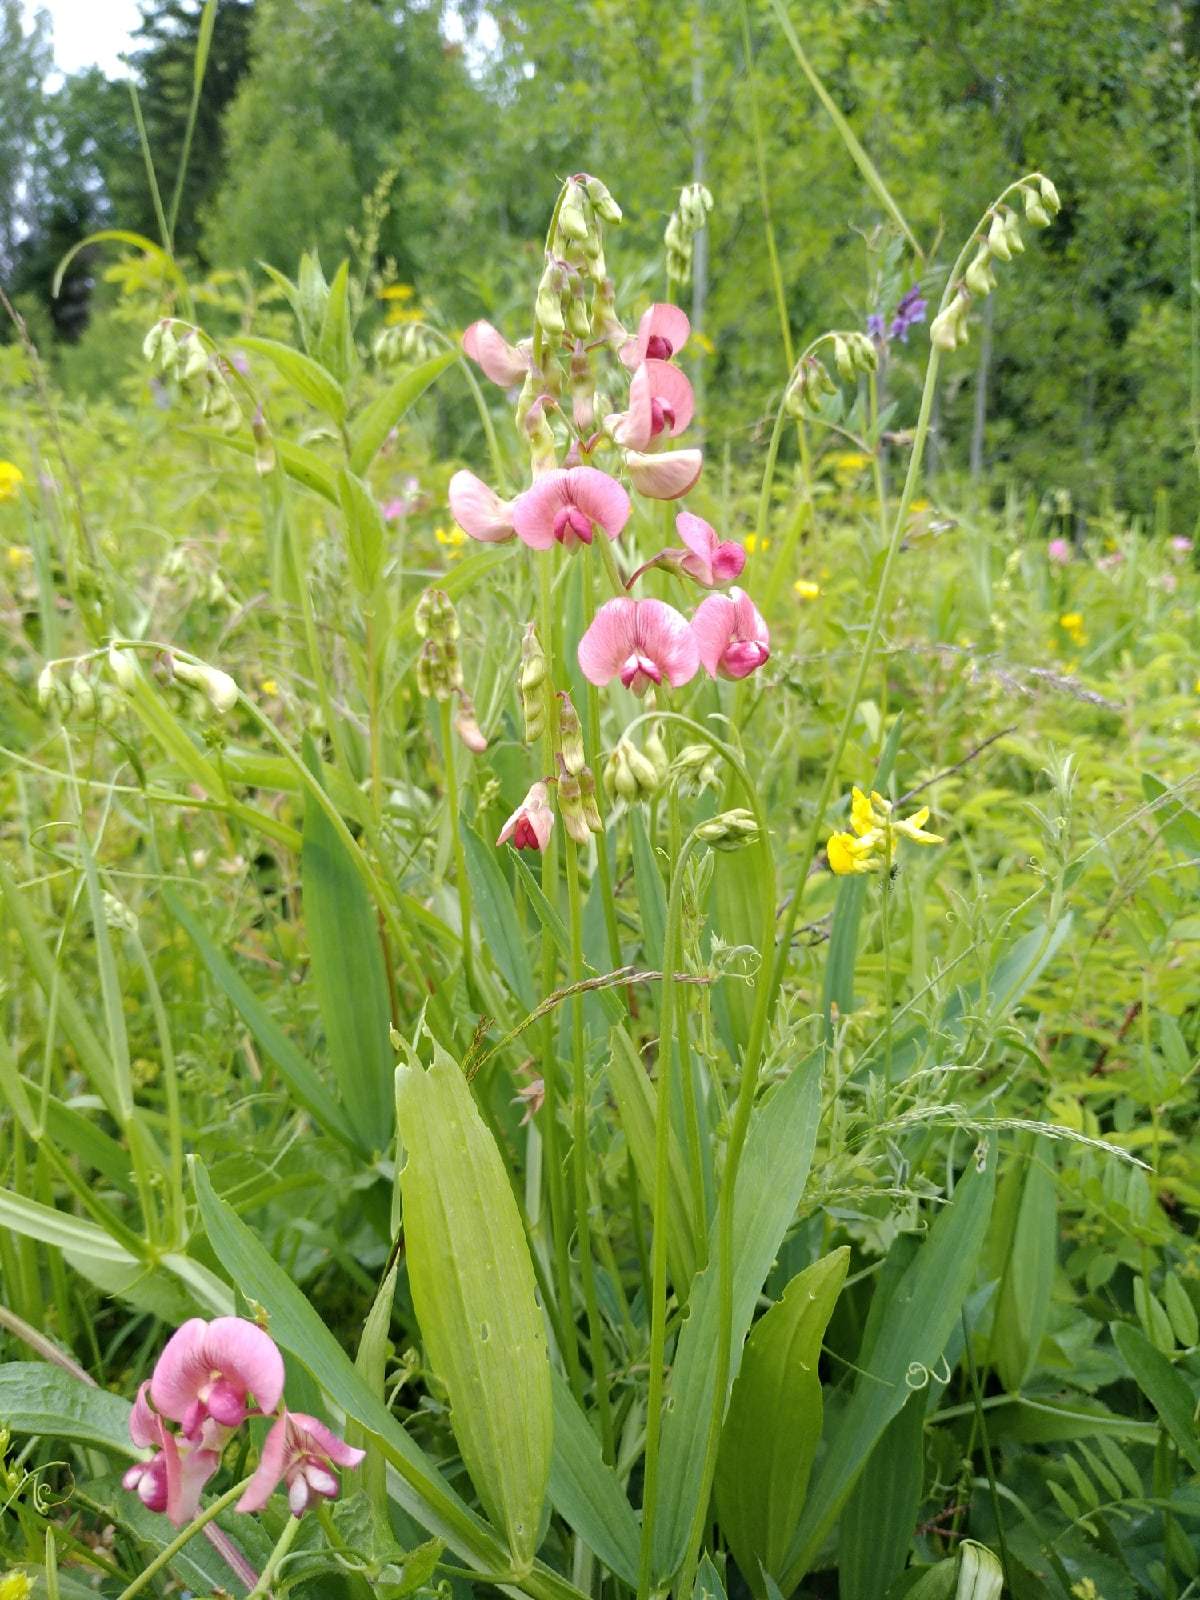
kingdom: Plantae
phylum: Tracheophyta
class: Magnoliopsida
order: Fabales
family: Fabaceae
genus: Lathyrus
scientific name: Lathyrus sylvestris
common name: Flat pea
